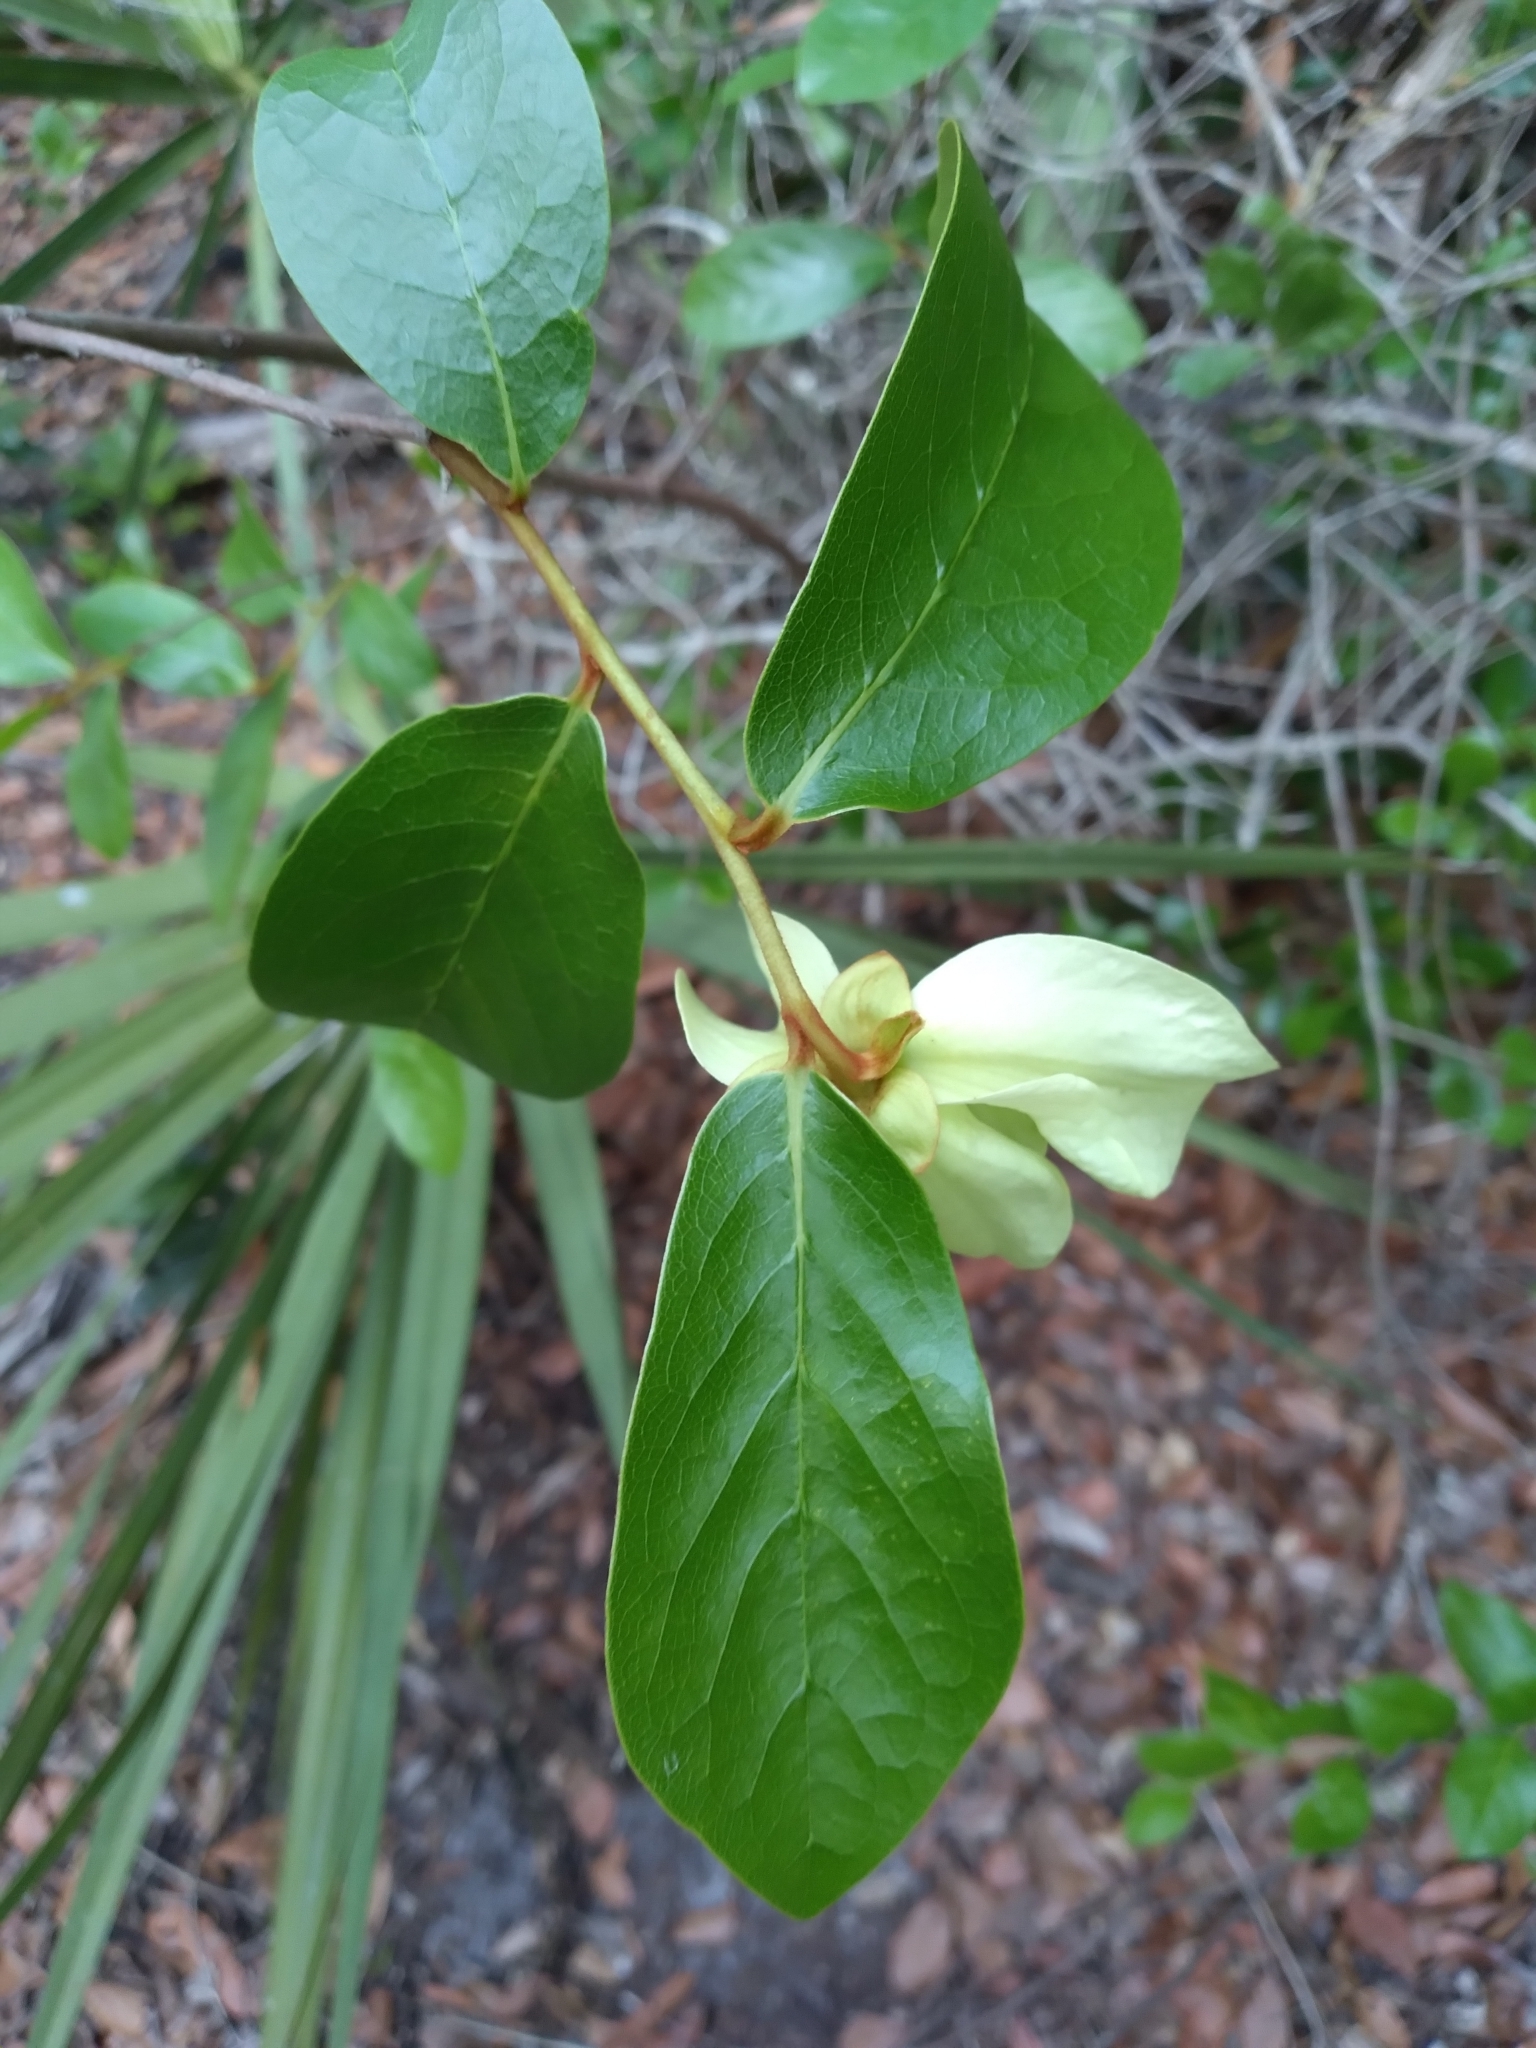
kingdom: Plantae
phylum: Tracheophyta
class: Magnoliopsida
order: Magnoliales
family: Annonaceae
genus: Asimina
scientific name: Asimina obovata
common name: Flag pawpaw
